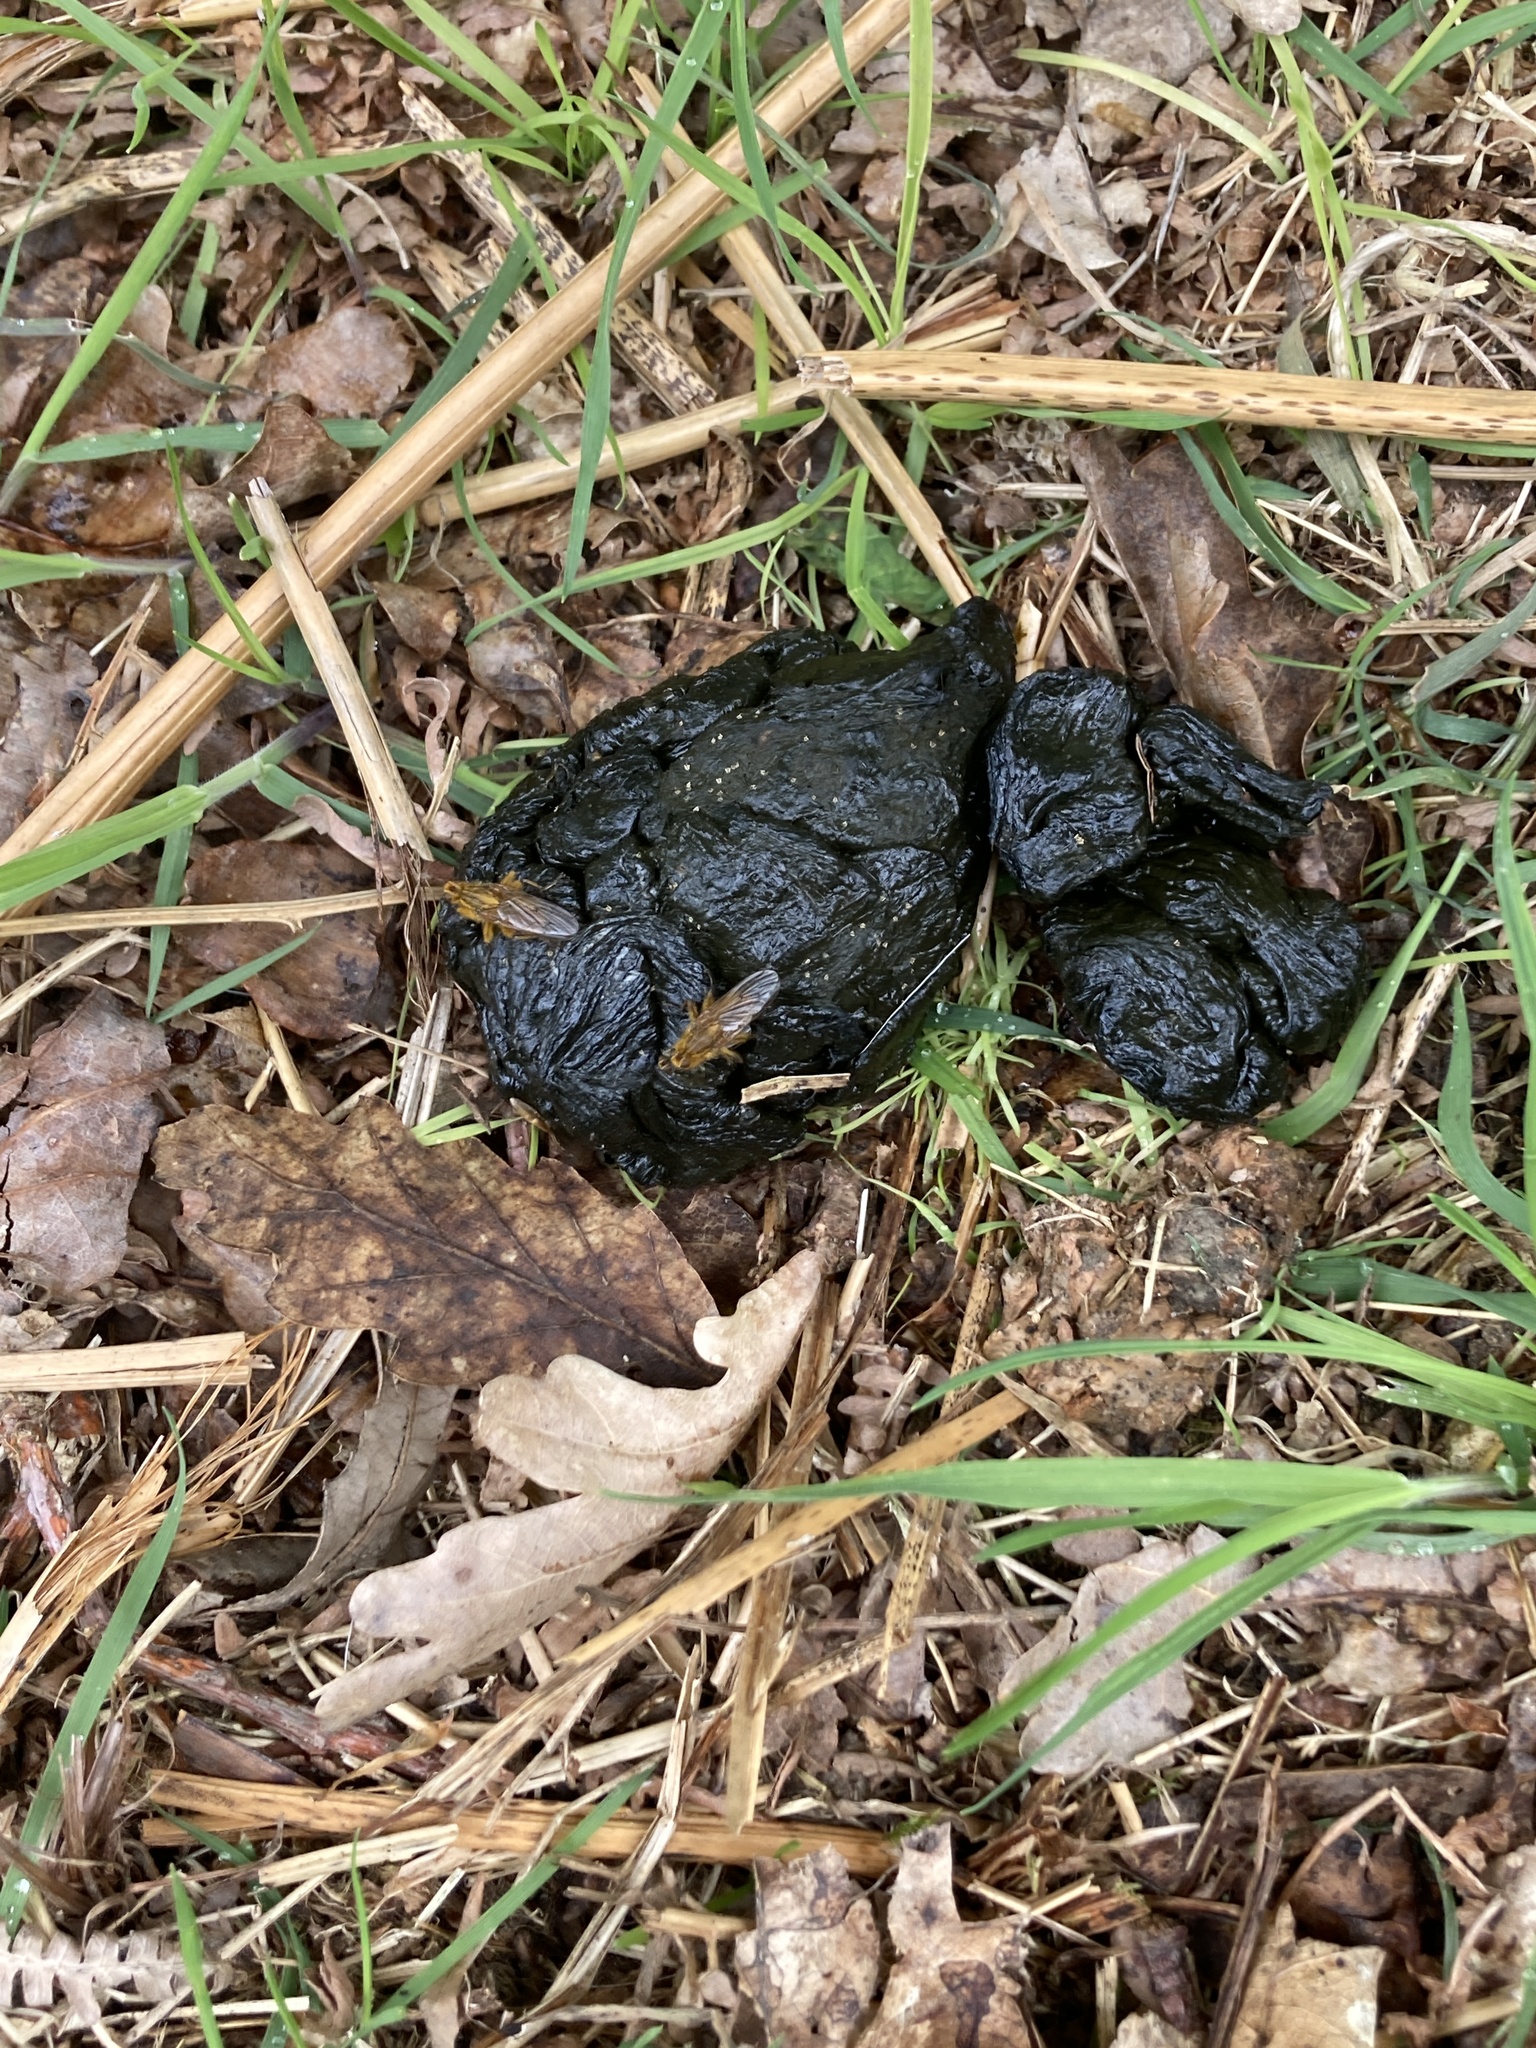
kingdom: Animalia
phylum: Arthropoda
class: Insecta
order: Diptera
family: Scathophagidae
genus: Scathophaga
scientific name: Scathophaga stercoraria
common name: Yellow dung fly
